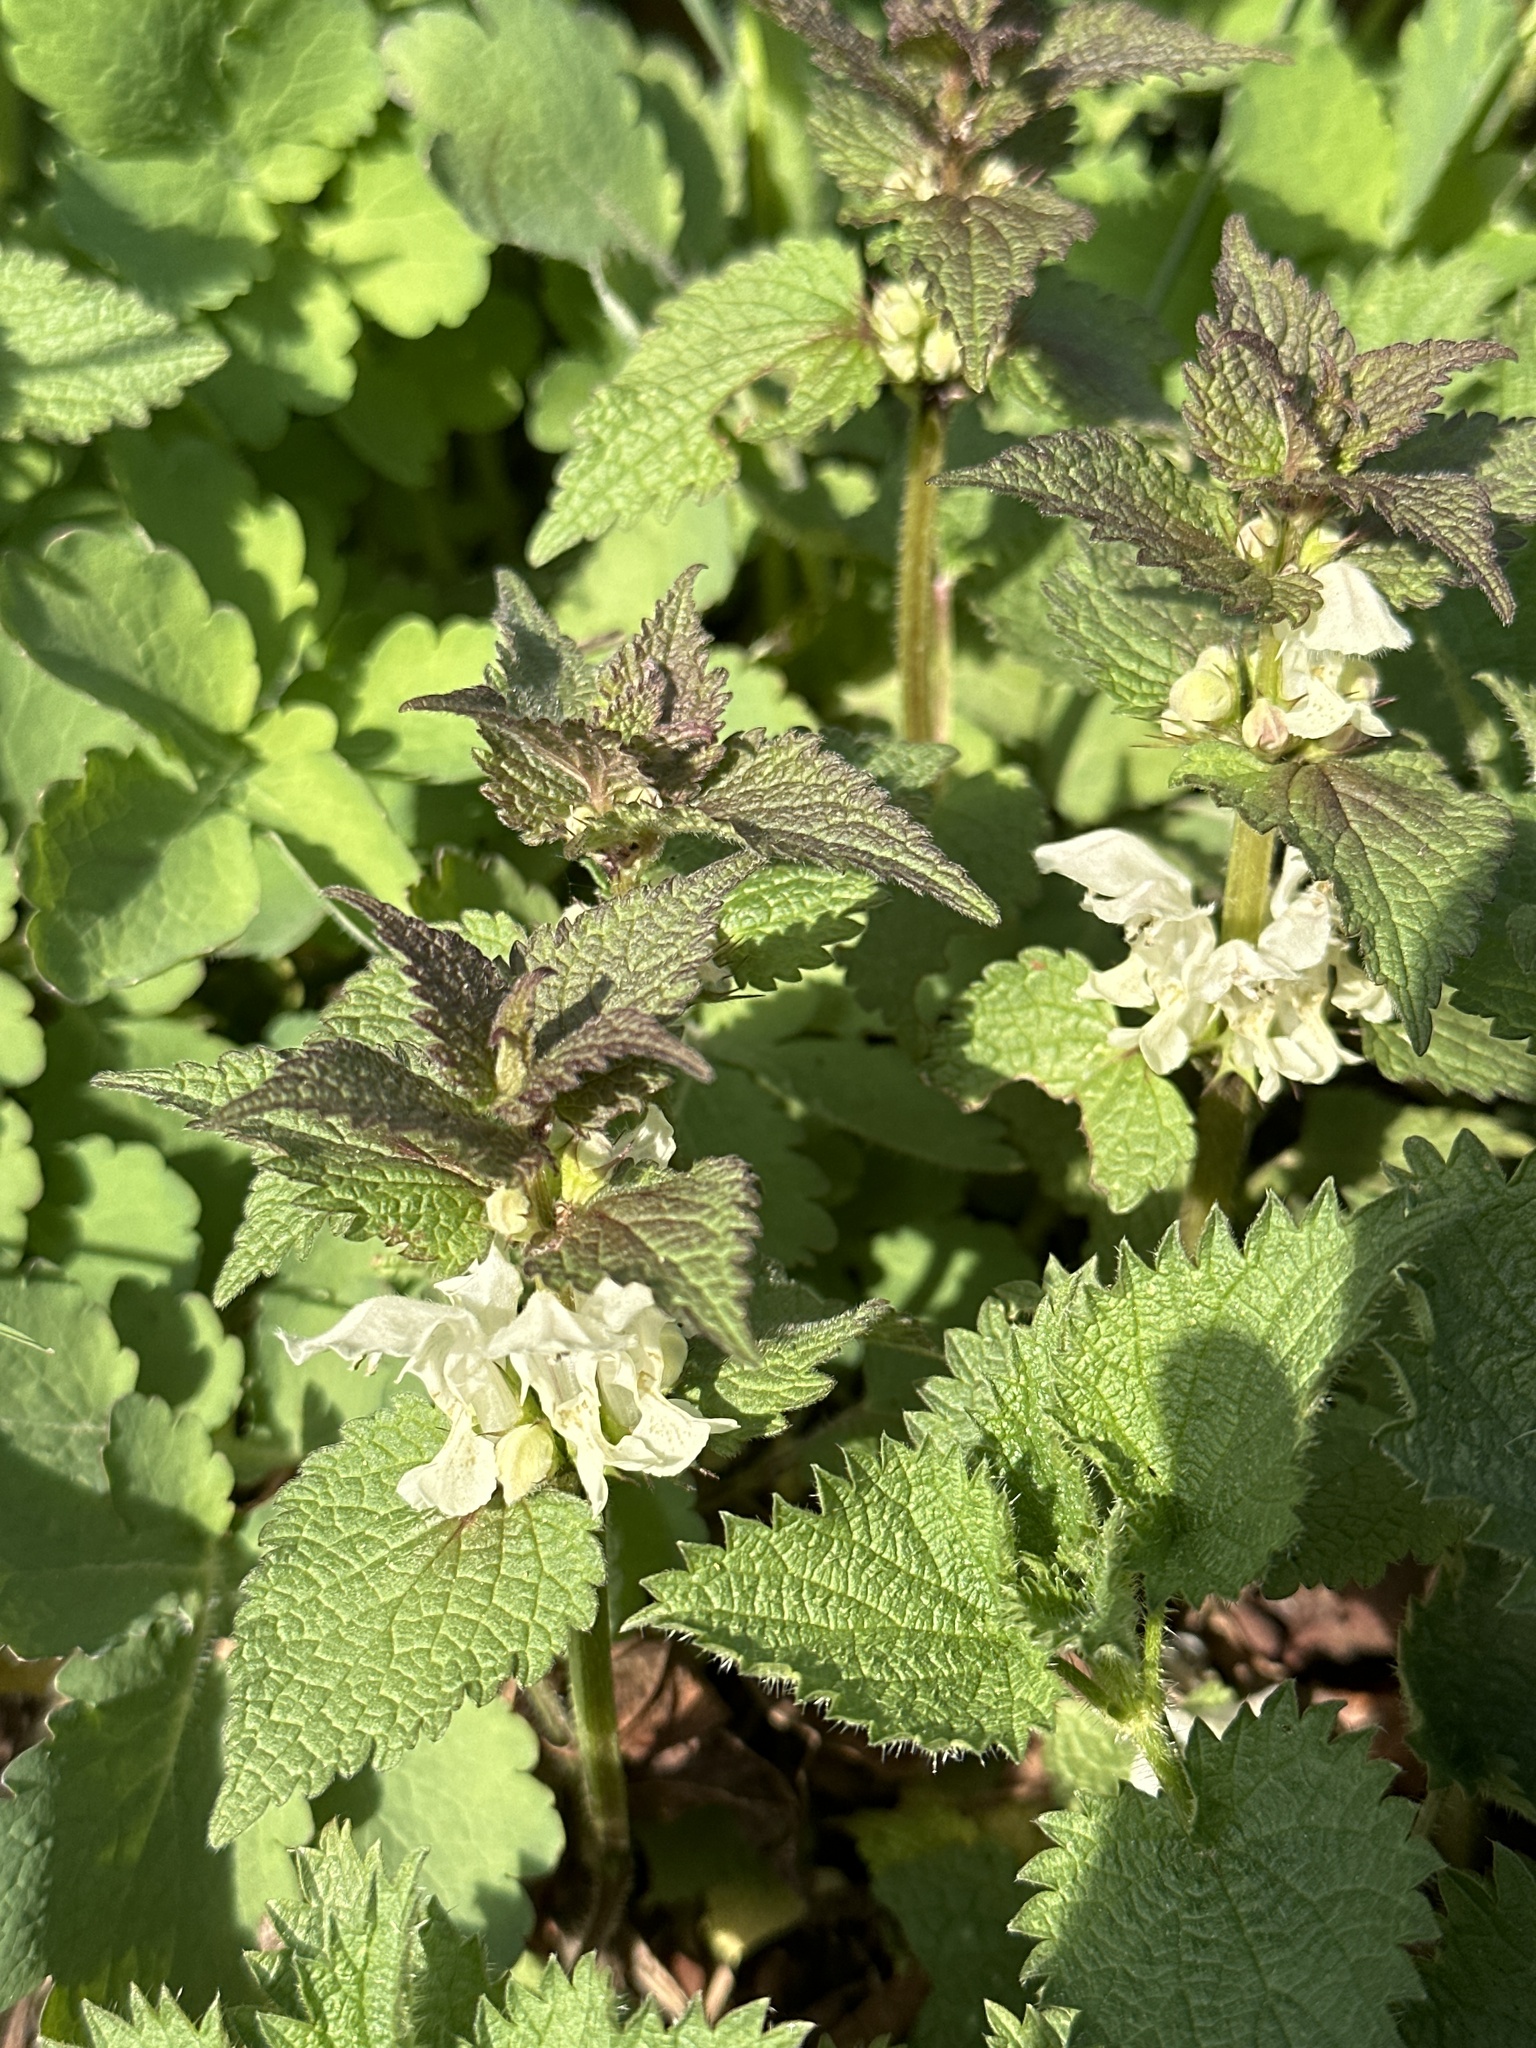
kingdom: Plantae
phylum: Tracheophyta
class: Magnoliopsida
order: Lamiales
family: Lamiaceae
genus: Lamium
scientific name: Lamium album
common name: White dead-nettle
